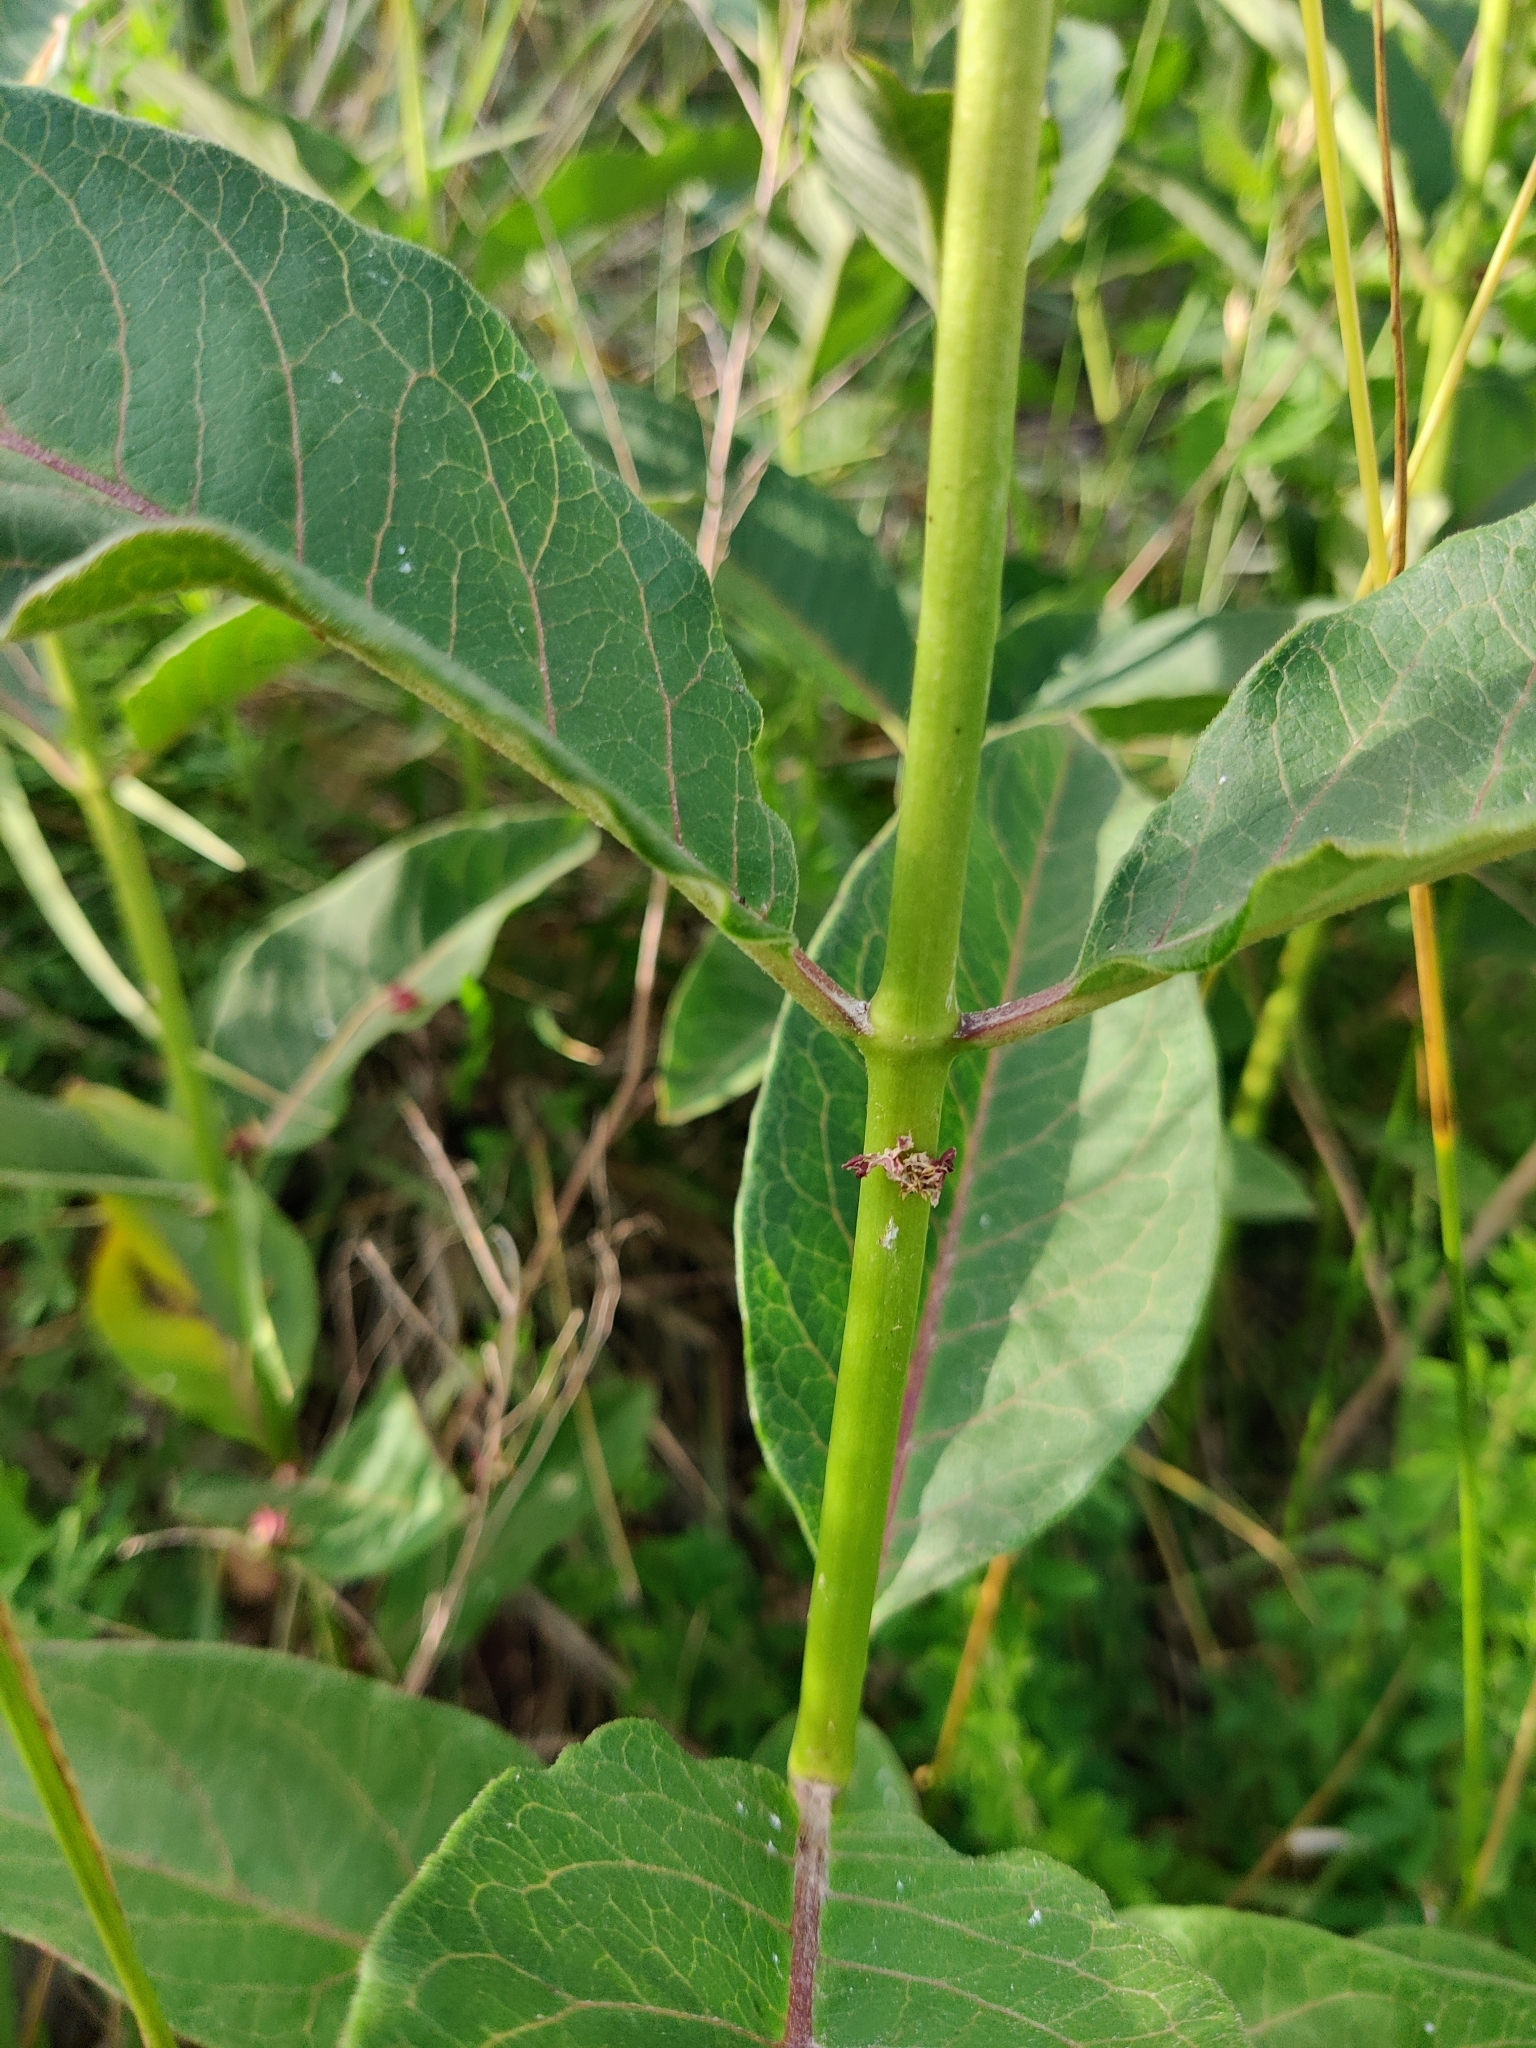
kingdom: Plantae
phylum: Tracheophyta
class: Magnoliopsida
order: Gentianales
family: Apocynaceae
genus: Asclepias
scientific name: Asclepias purpurascens
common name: Purple milkweed
